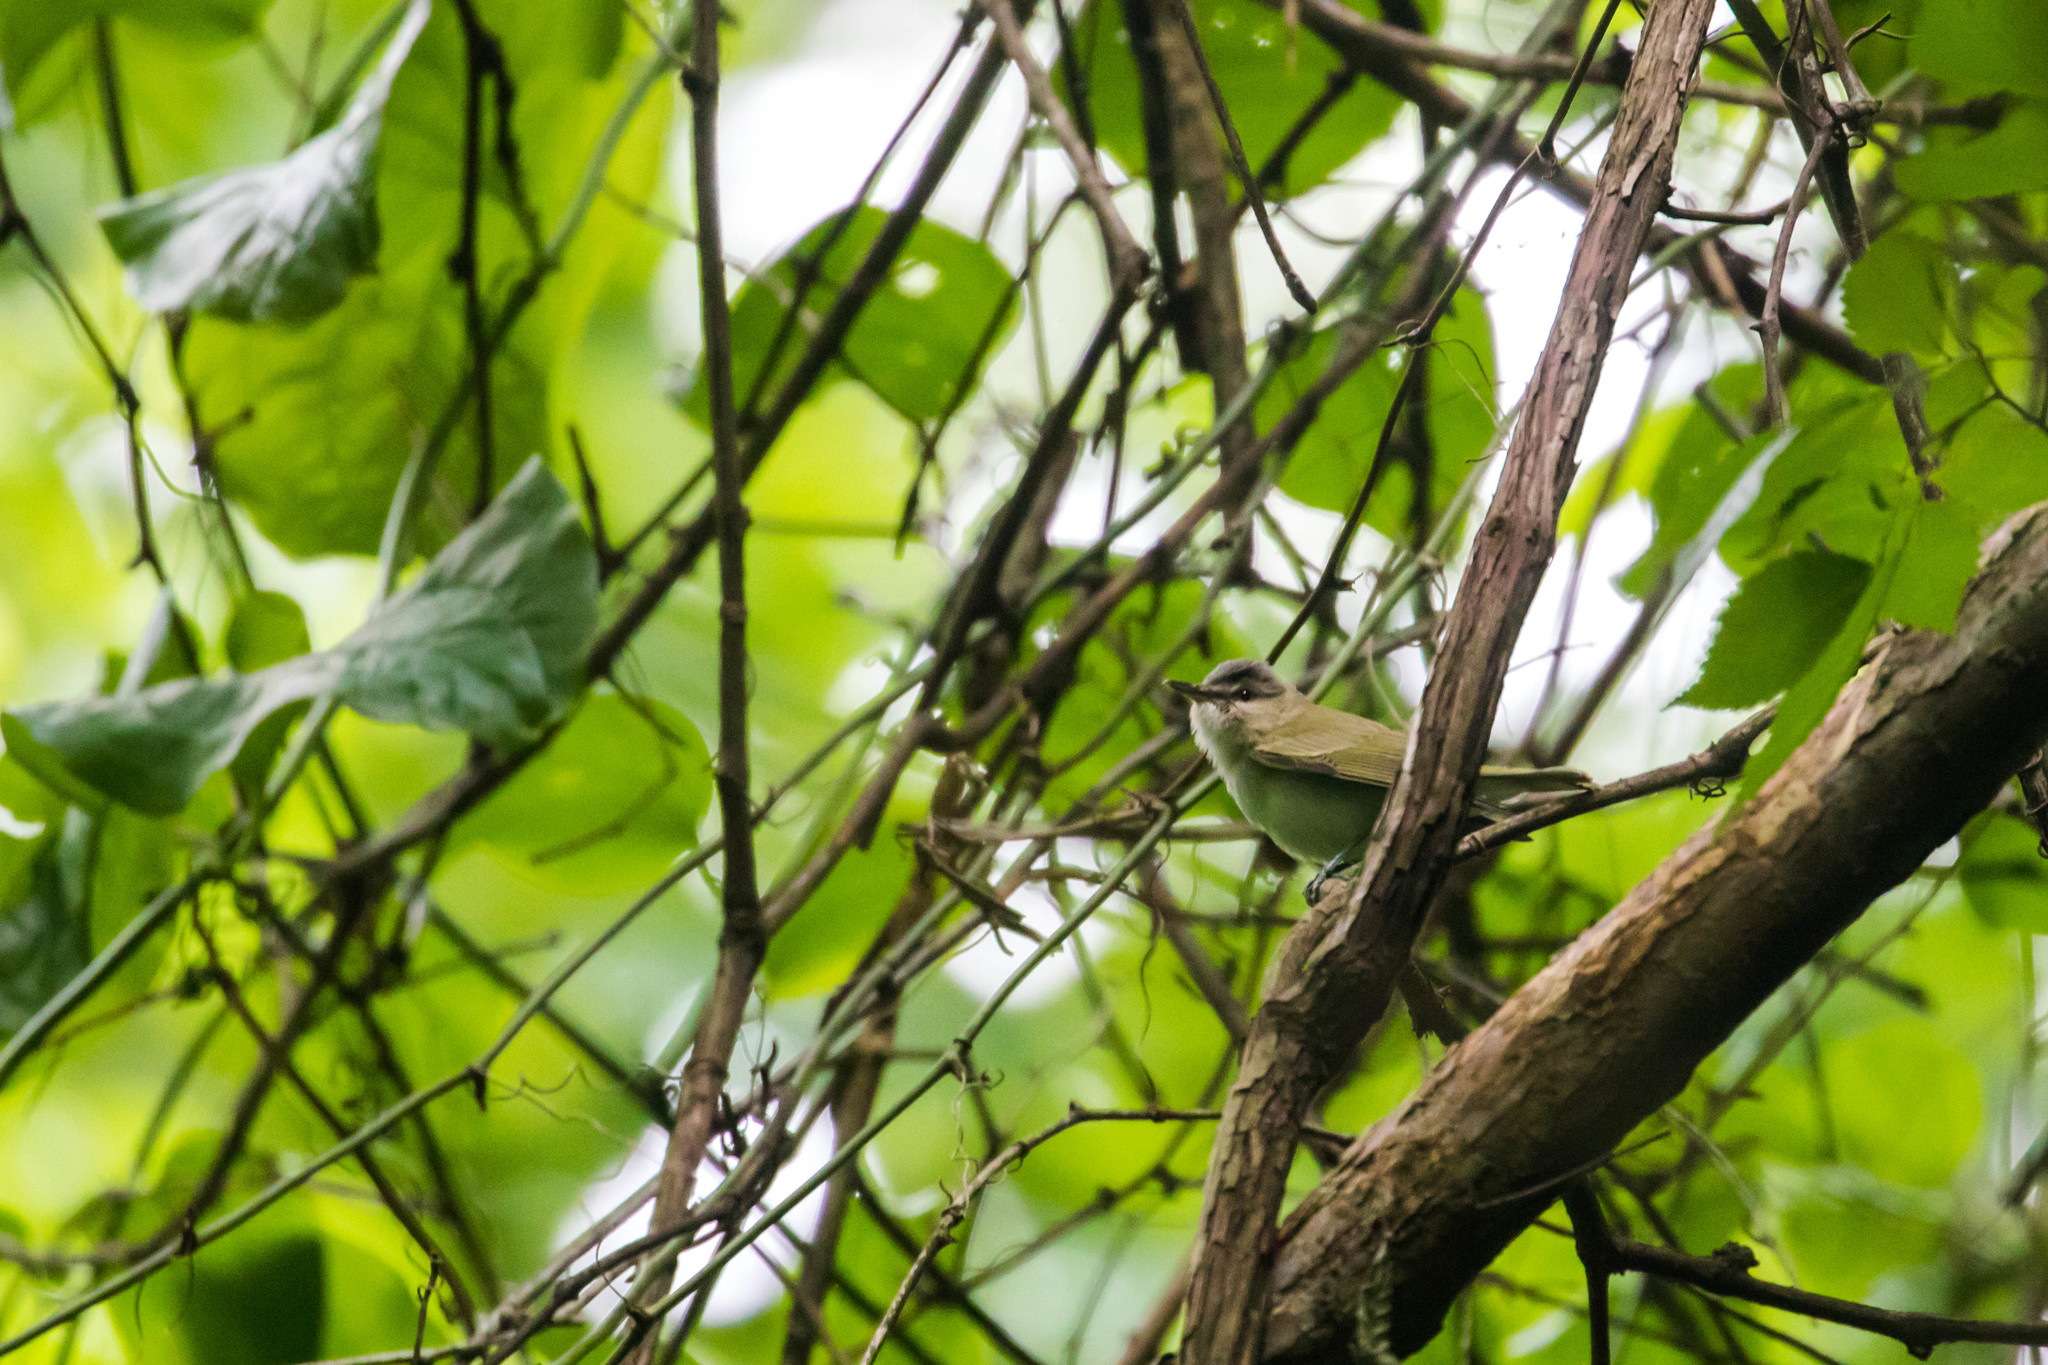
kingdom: Animalia
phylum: Chordata
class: Aves
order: Passeriformes
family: Vireonidae
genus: Vireo
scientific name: Vireo olivaceus
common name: Red-eyed vireo
